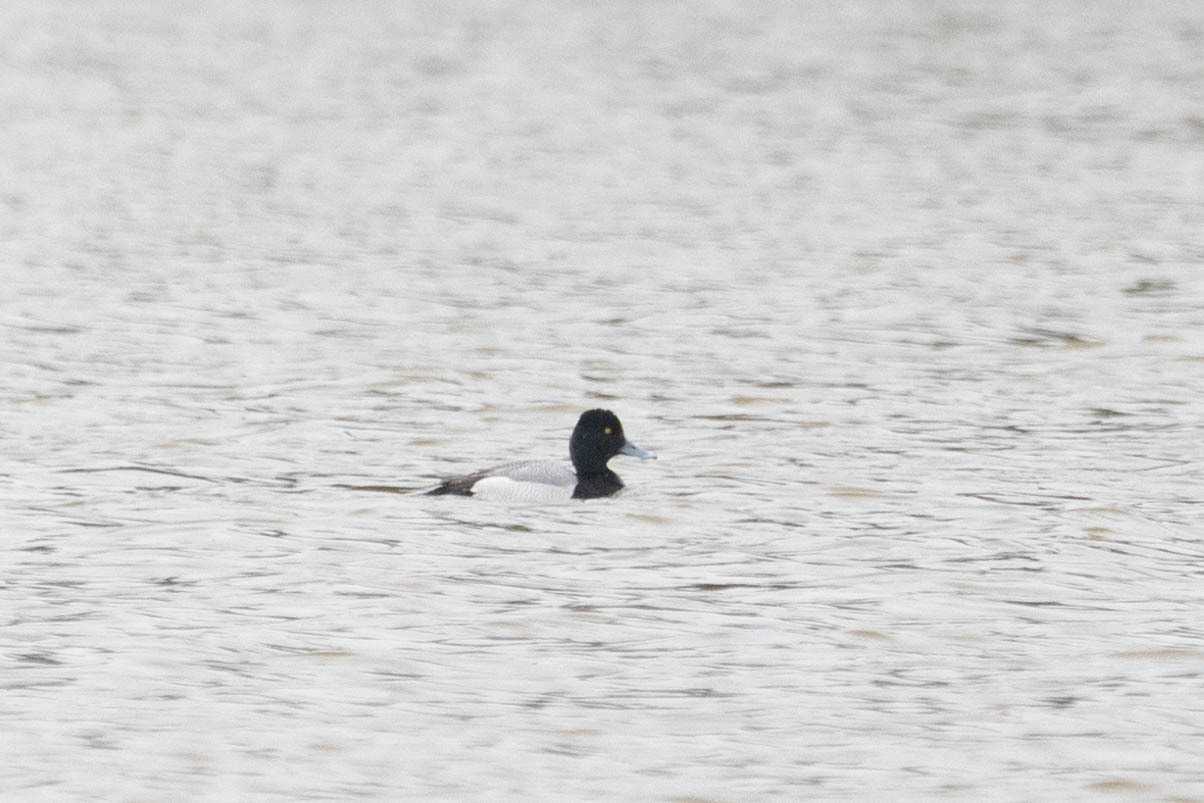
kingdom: Animalia
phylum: Chordata
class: Aves
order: Anseriformes
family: Anatidae
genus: Aythya
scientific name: Aythya affinis
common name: Lesser scaup
